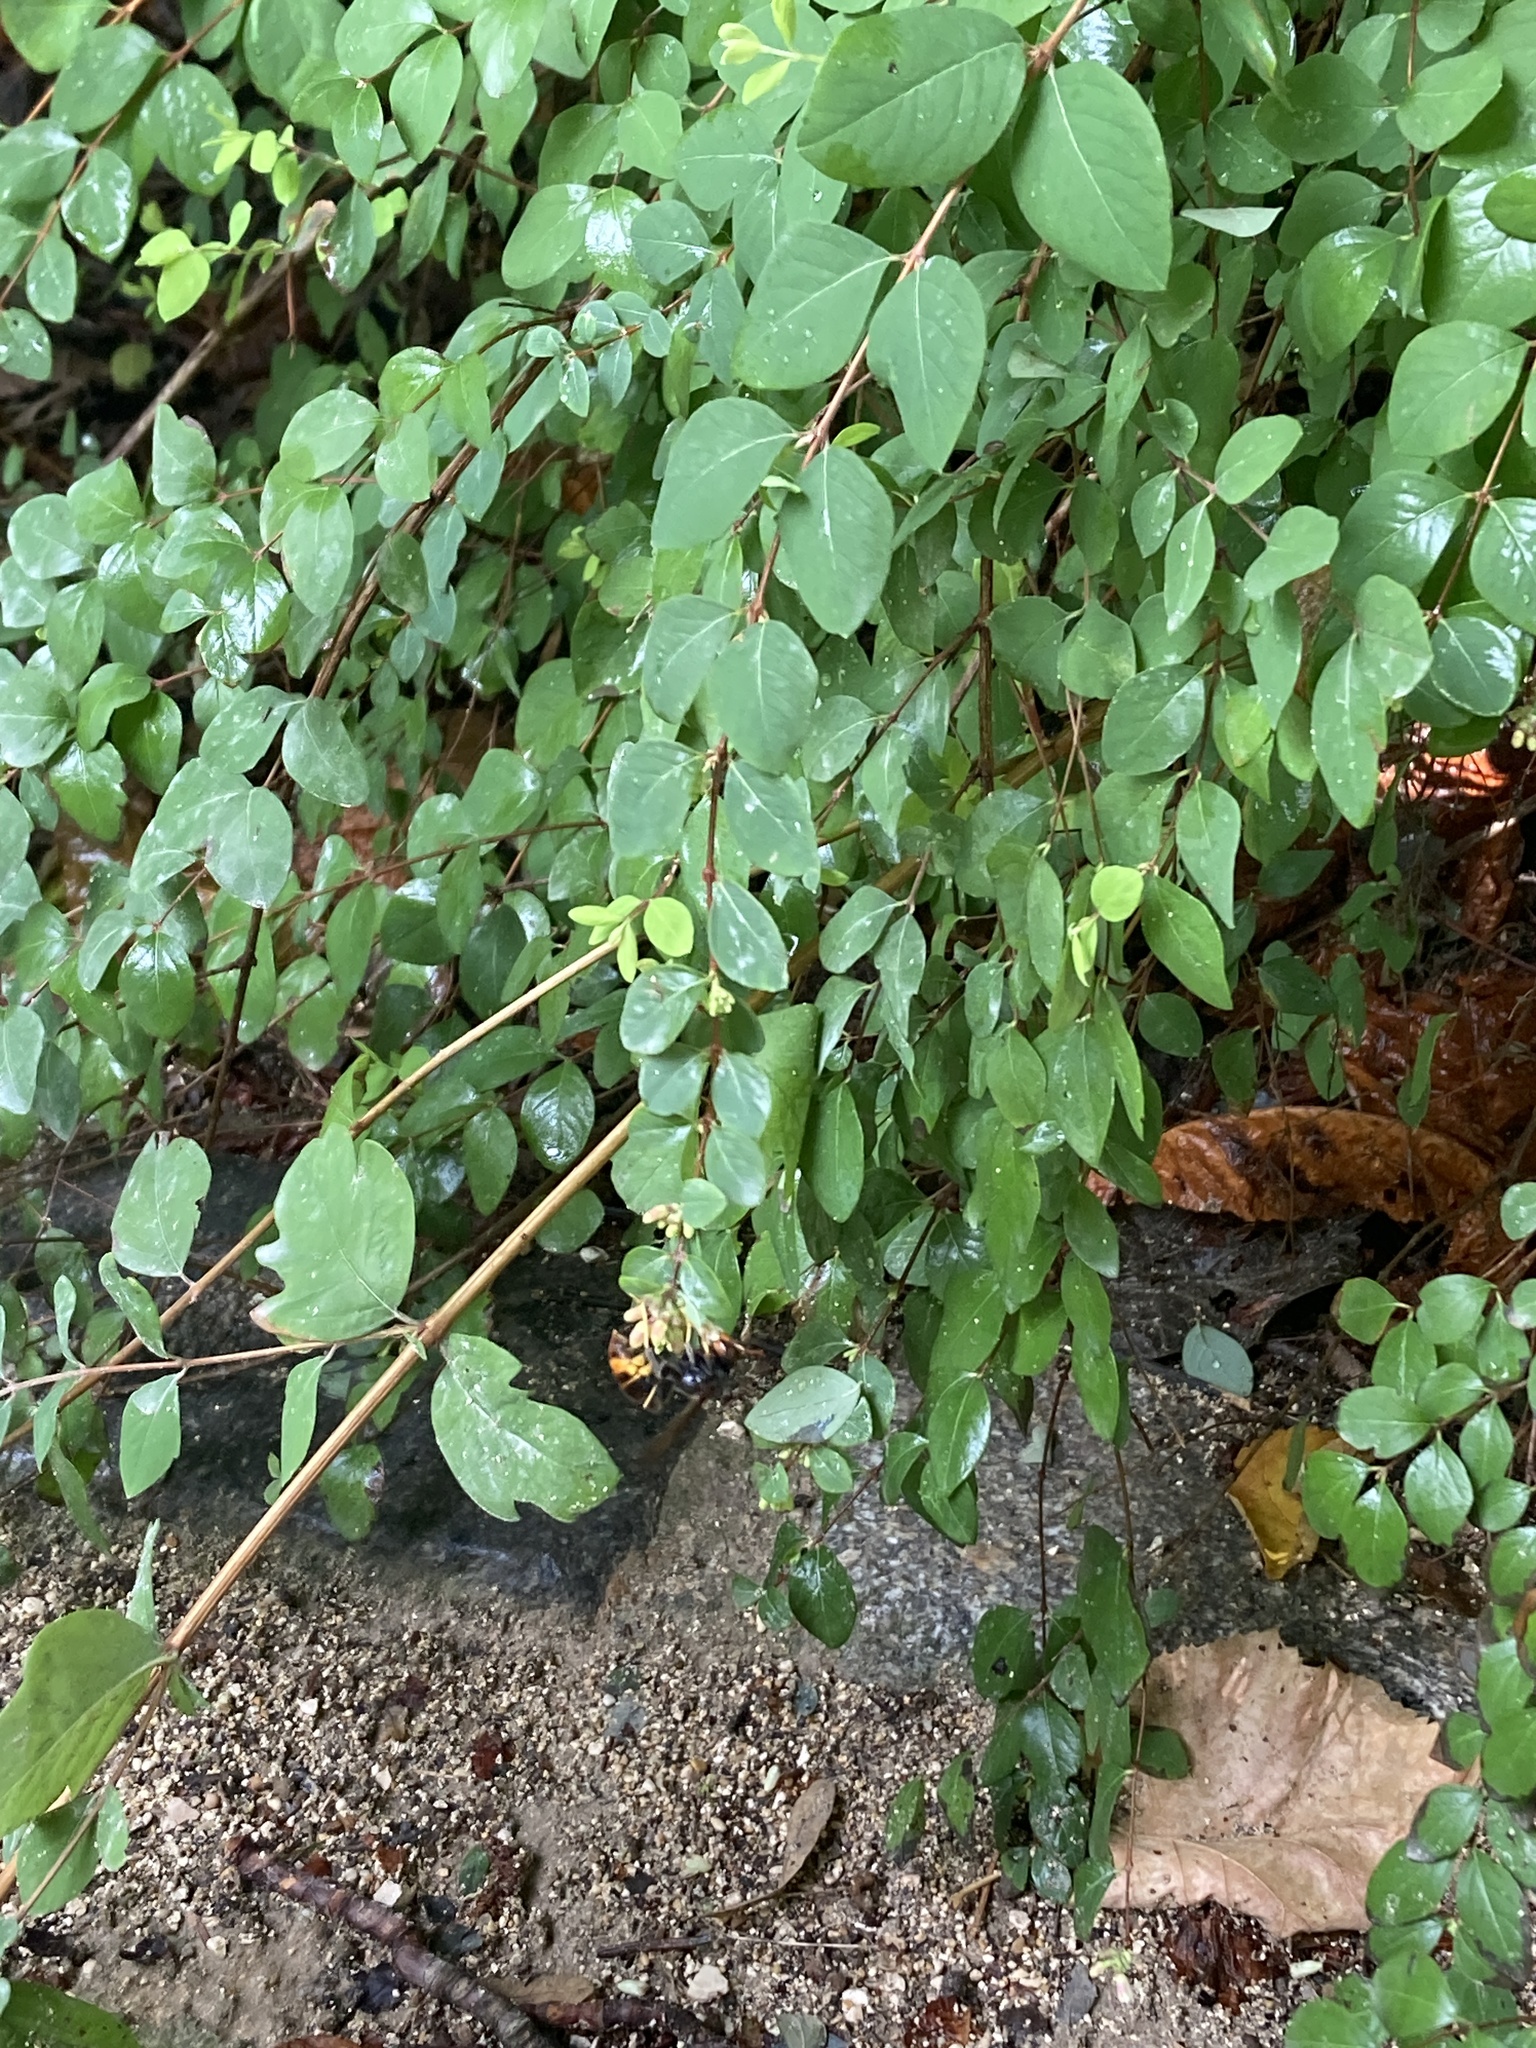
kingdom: Animalia
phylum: Arthropoda
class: Insecta
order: Hymenoptera
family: Vespidae
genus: Vespa
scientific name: Vespa velutina
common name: Asian hornet
